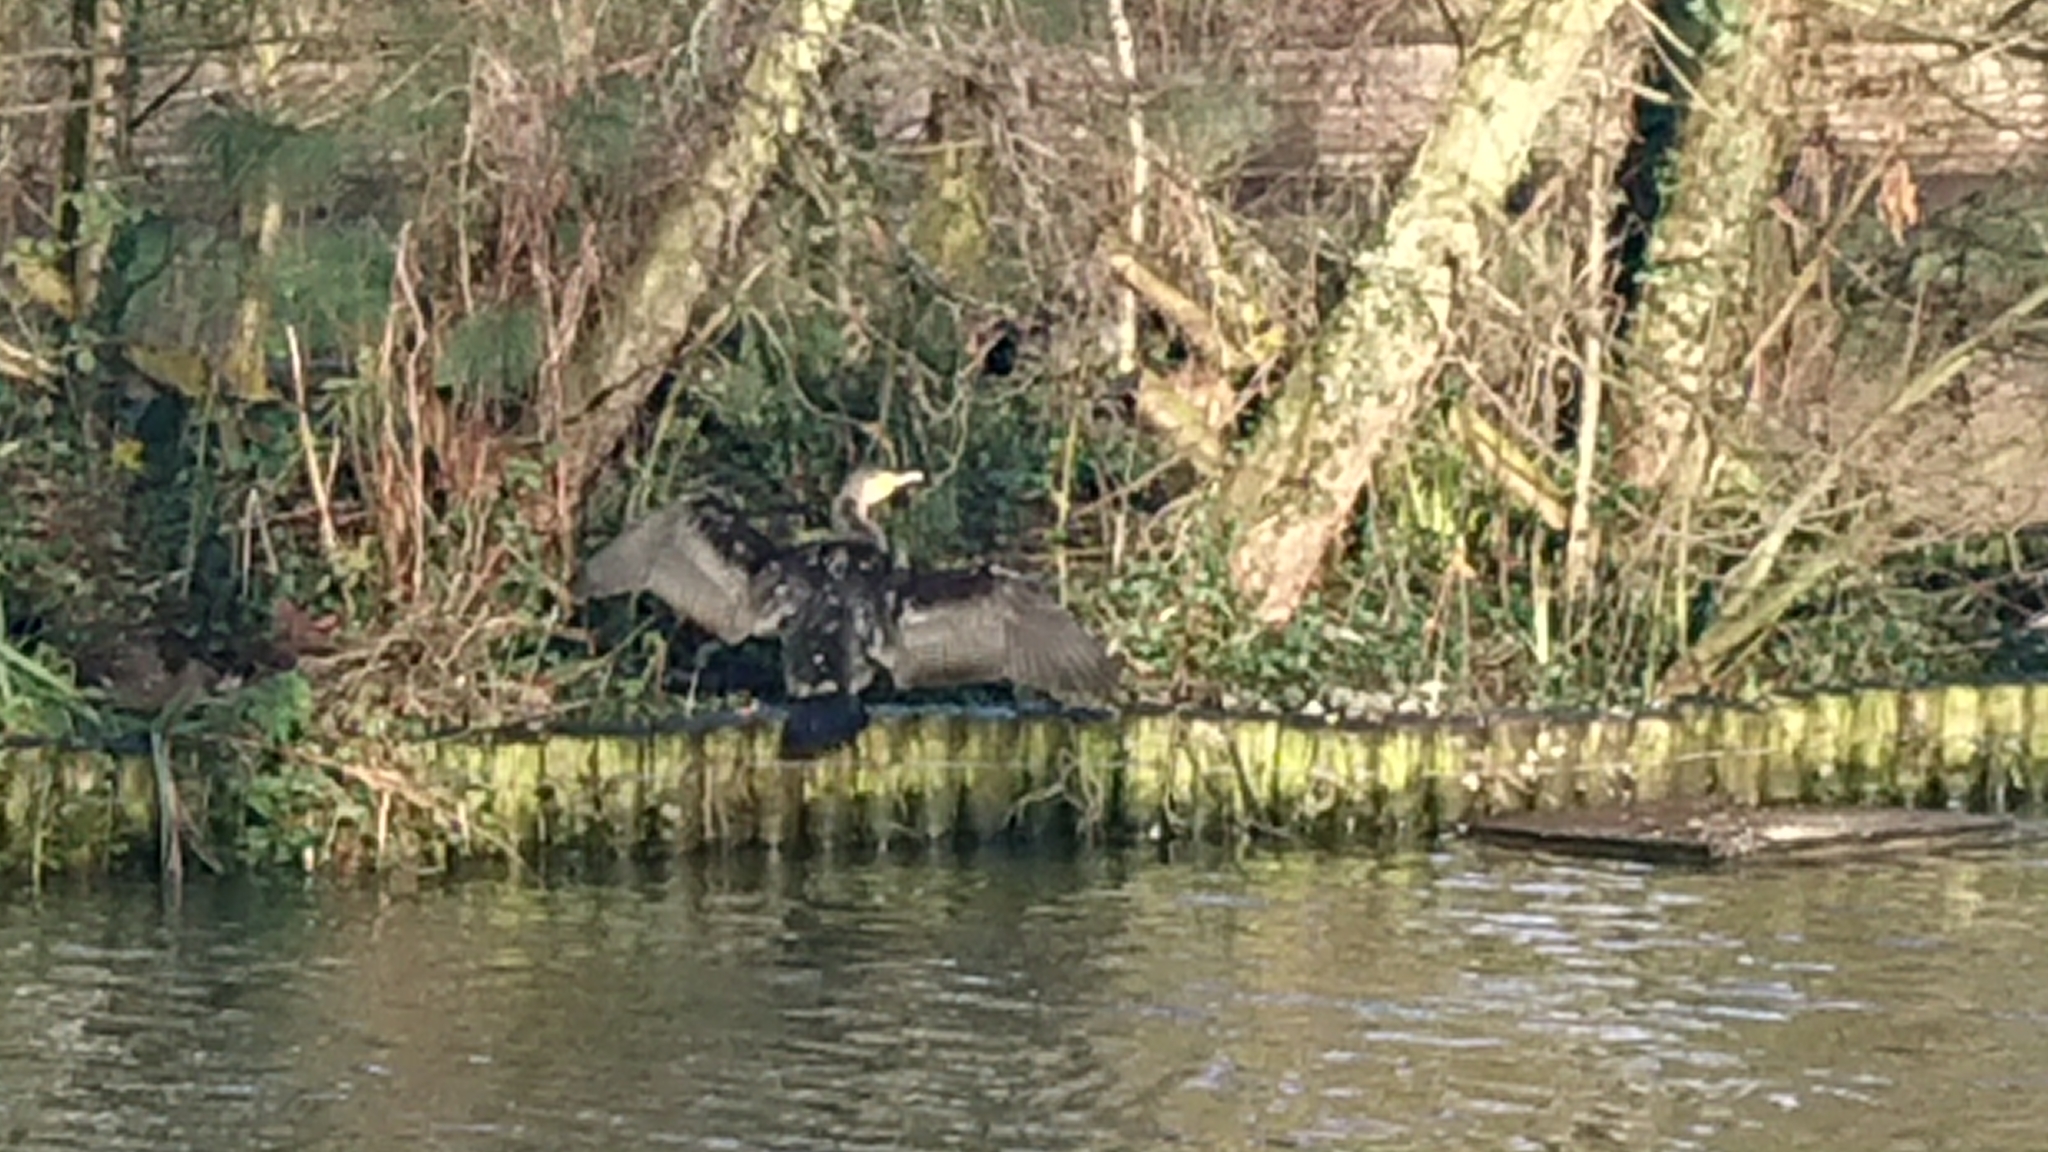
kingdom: Animalia
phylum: Chordata
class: Aves
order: Suliformes
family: Phalacrocoracidae
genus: Phalacrocorax
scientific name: Phalacrocorax carbo
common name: Great cormorant
